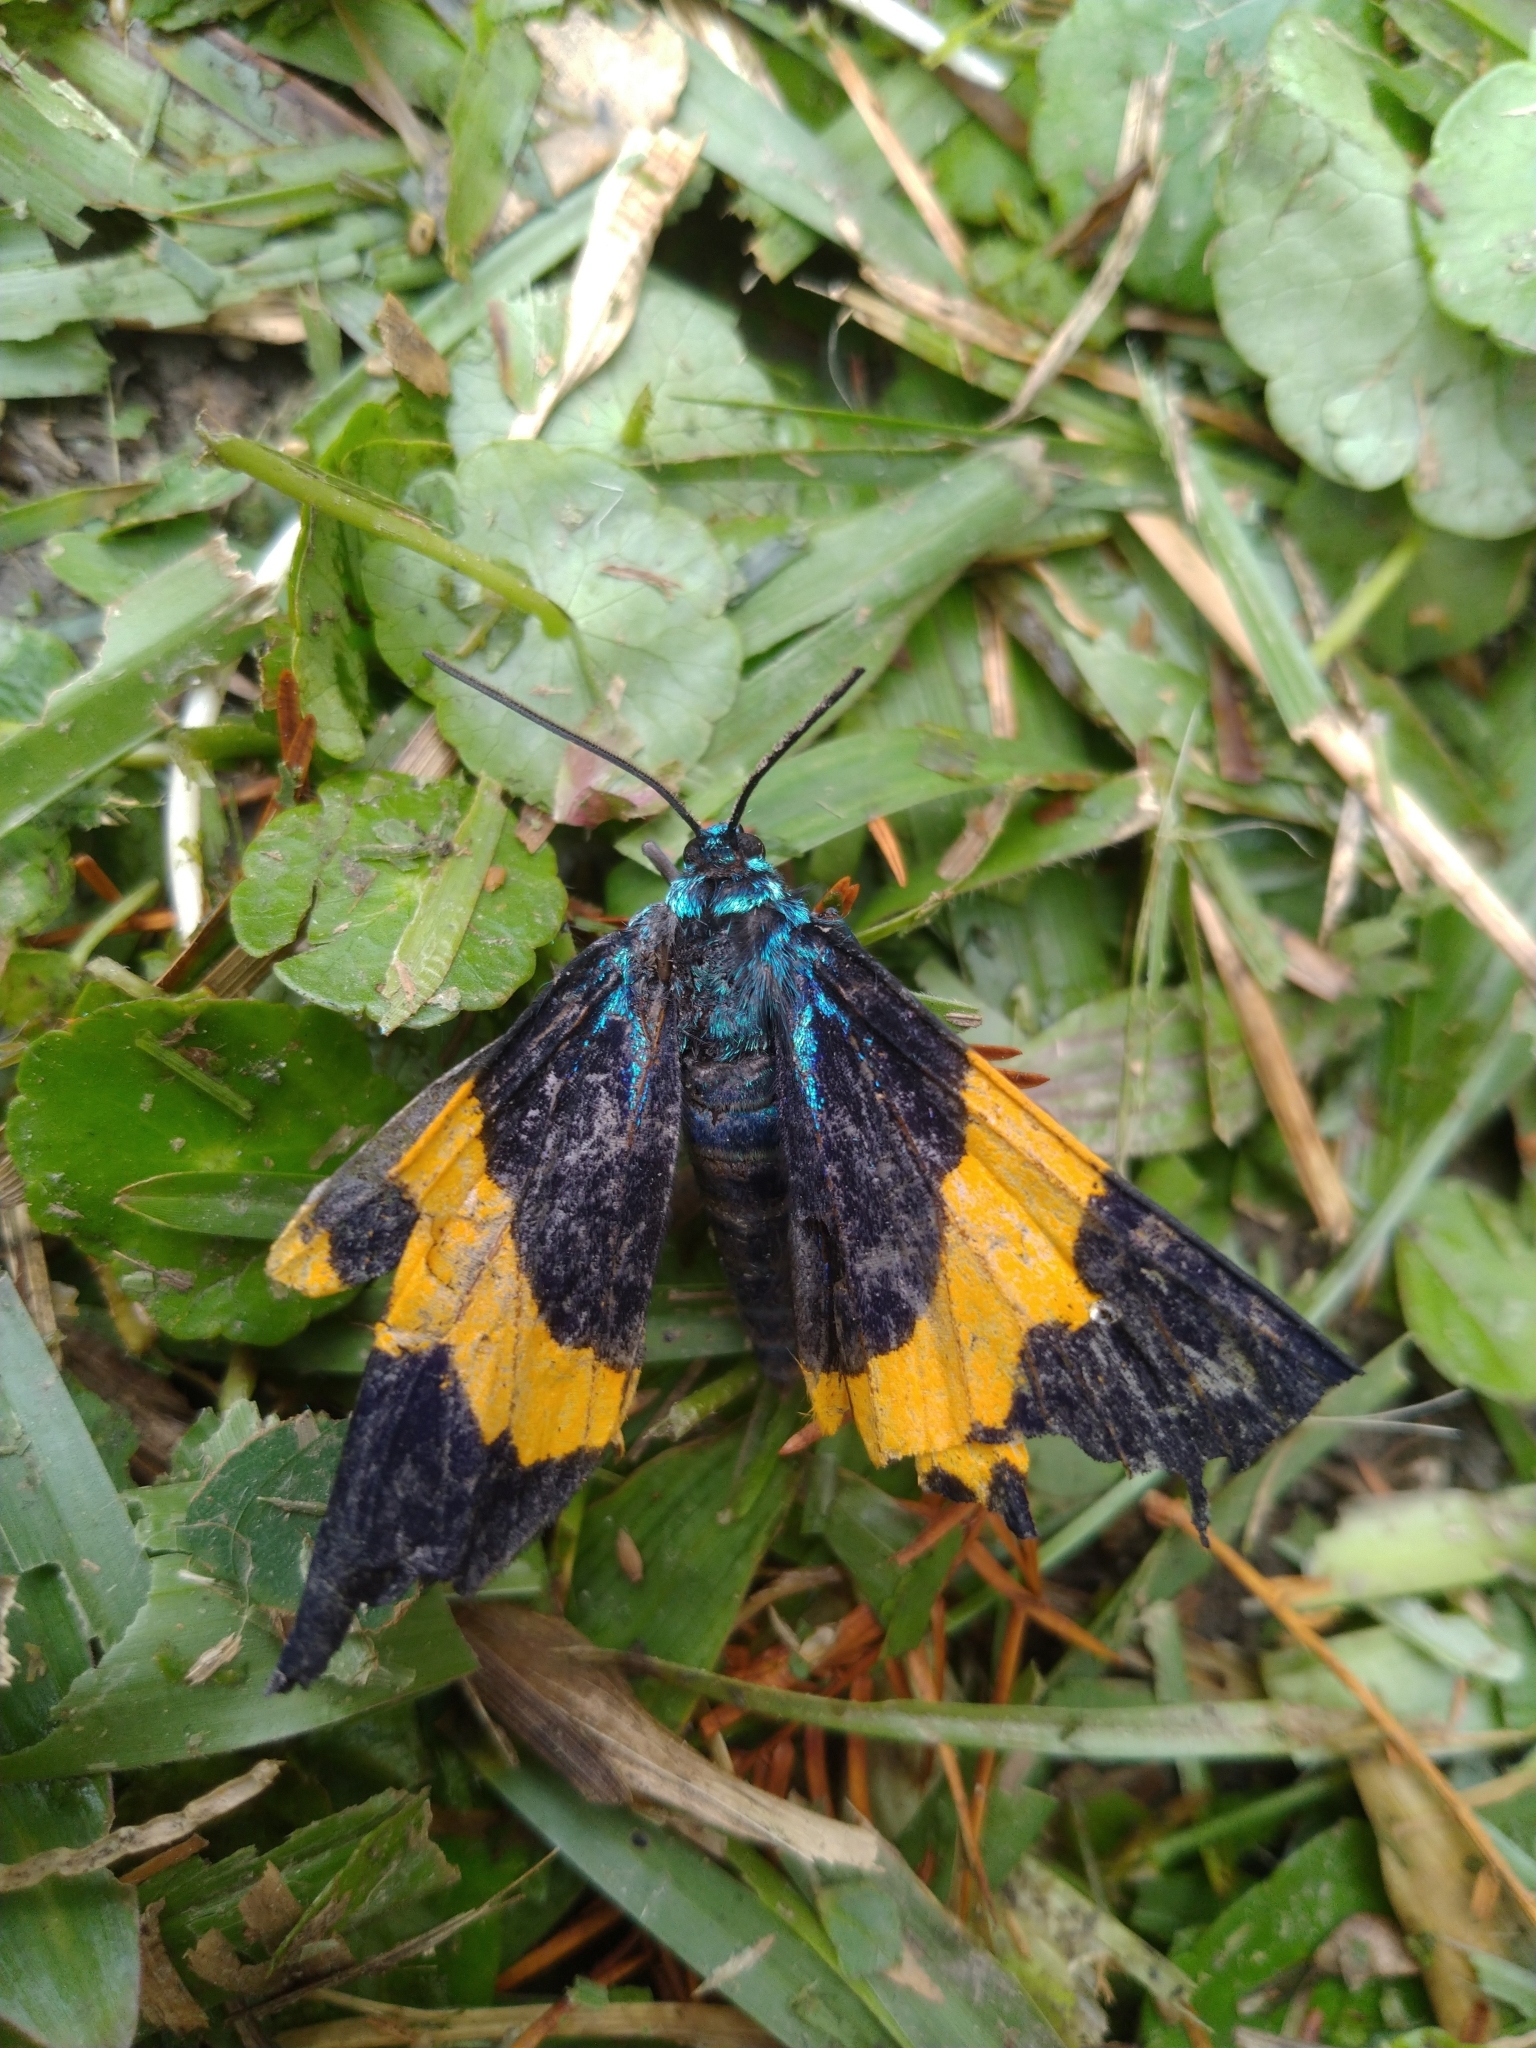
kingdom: Animalia
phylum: Arthropoda
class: Insecta
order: Lepidoptera
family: Geometridae
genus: Milionia
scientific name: Milionia basalis
